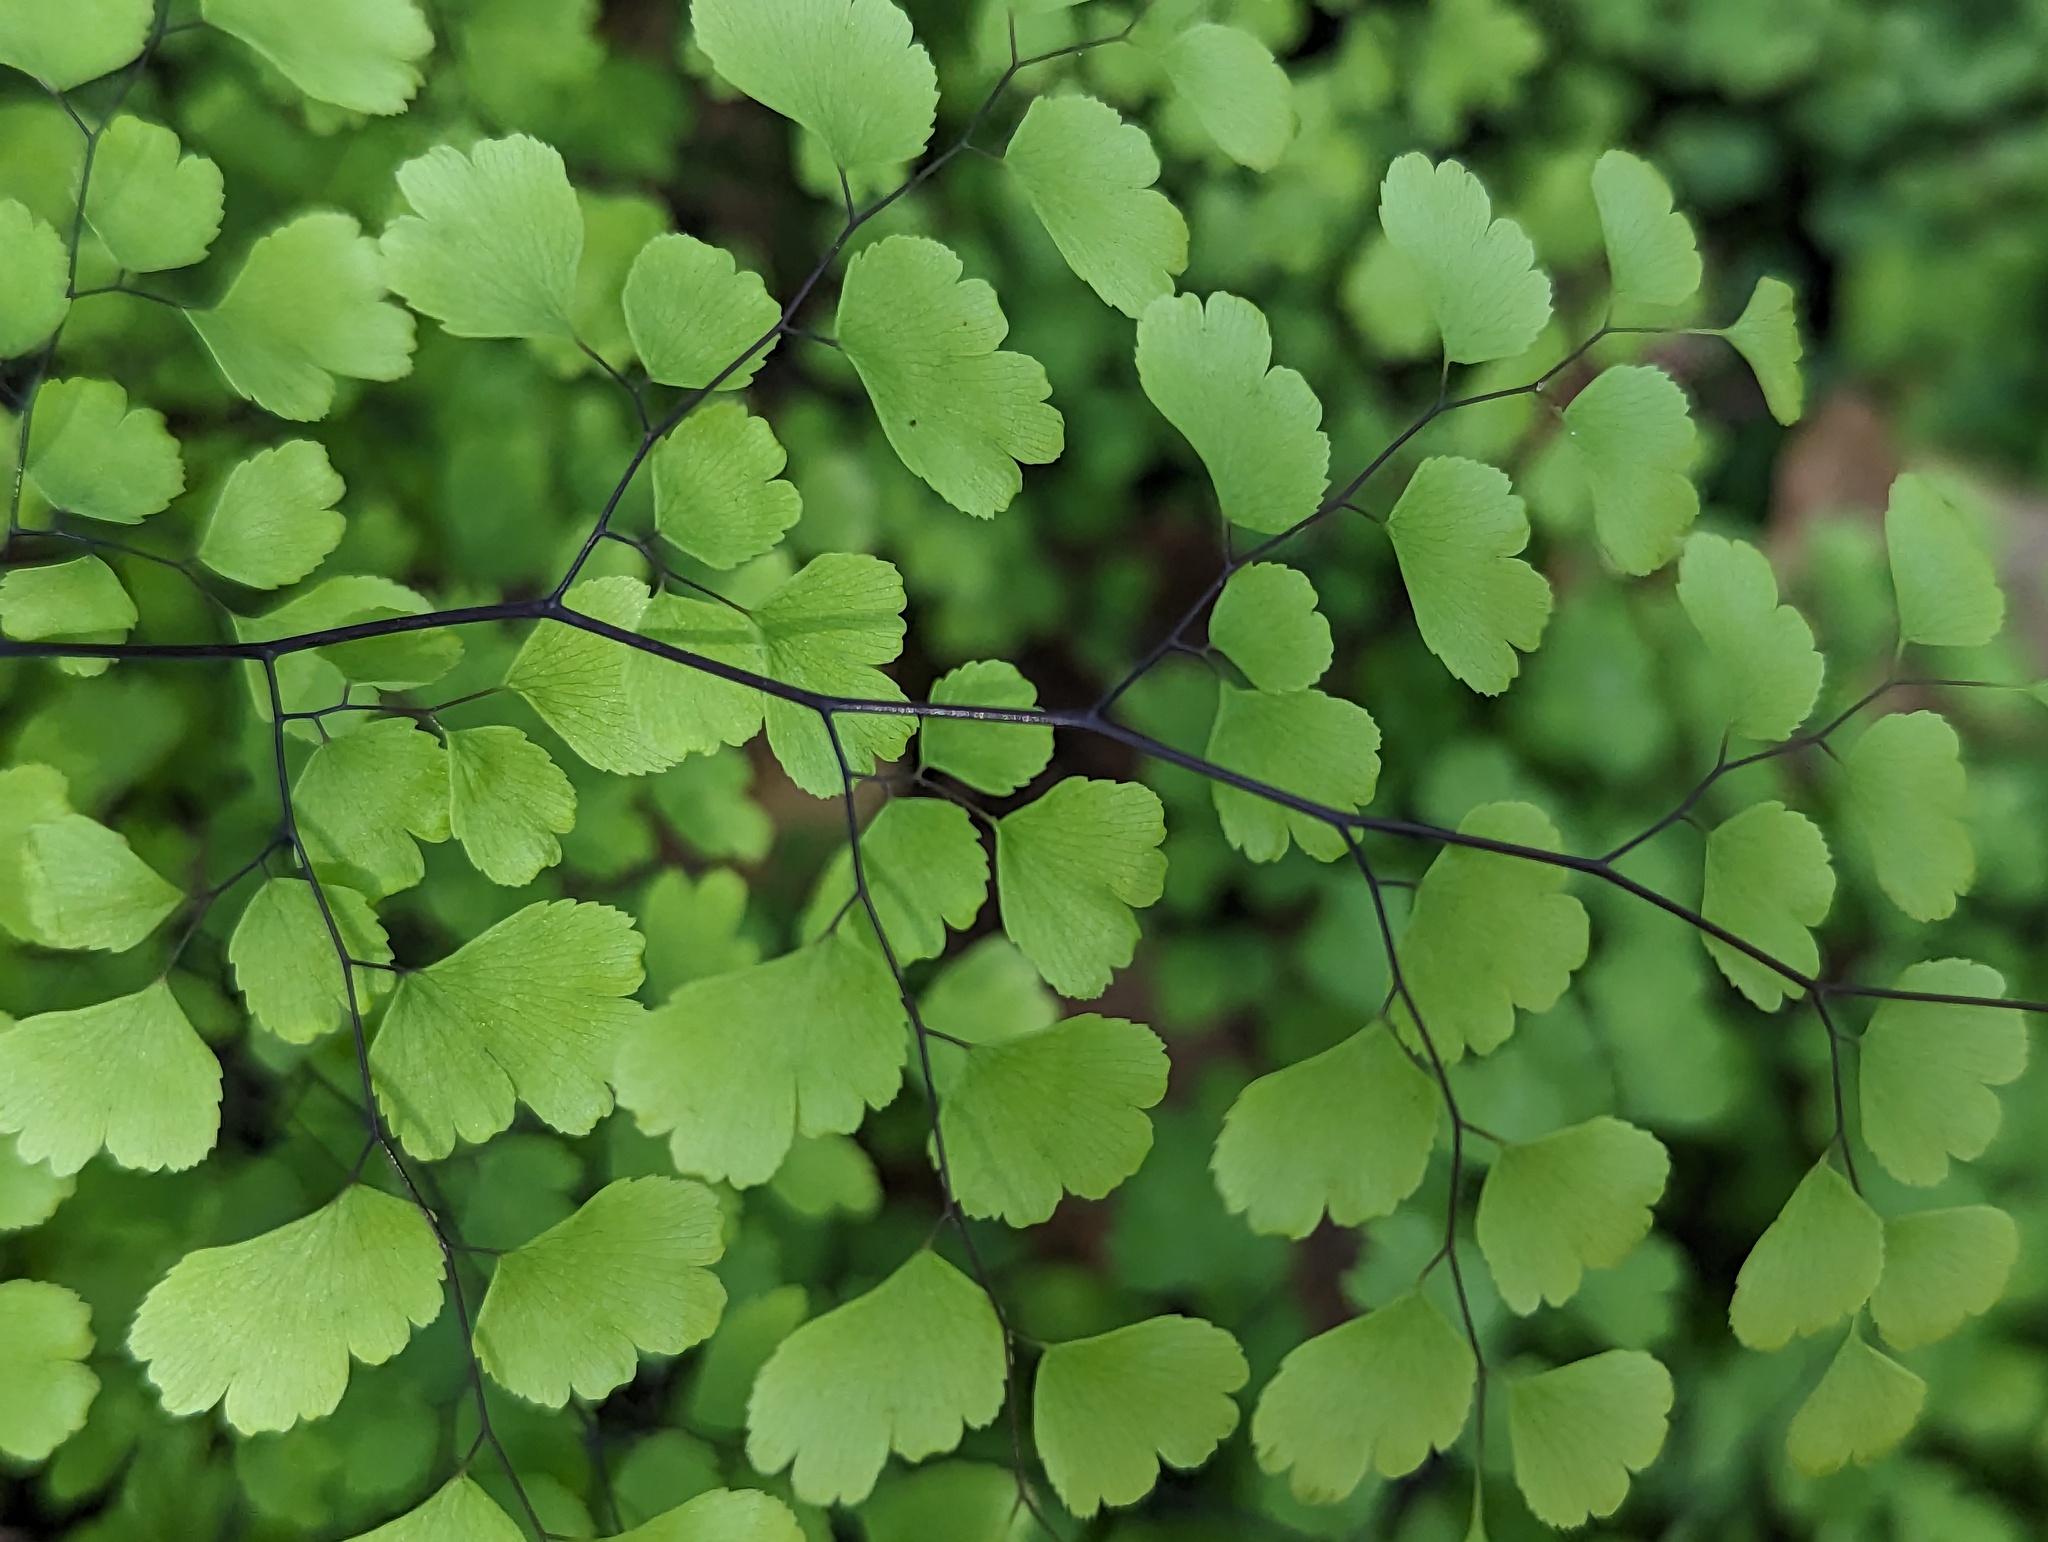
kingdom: Plantae
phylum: Tracheophyta
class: Polypodiopsida
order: Polypodiales
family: Pteridaceae
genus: Adiantum
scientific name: Adiantum capillus-veneris
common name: Maidenhair fern
